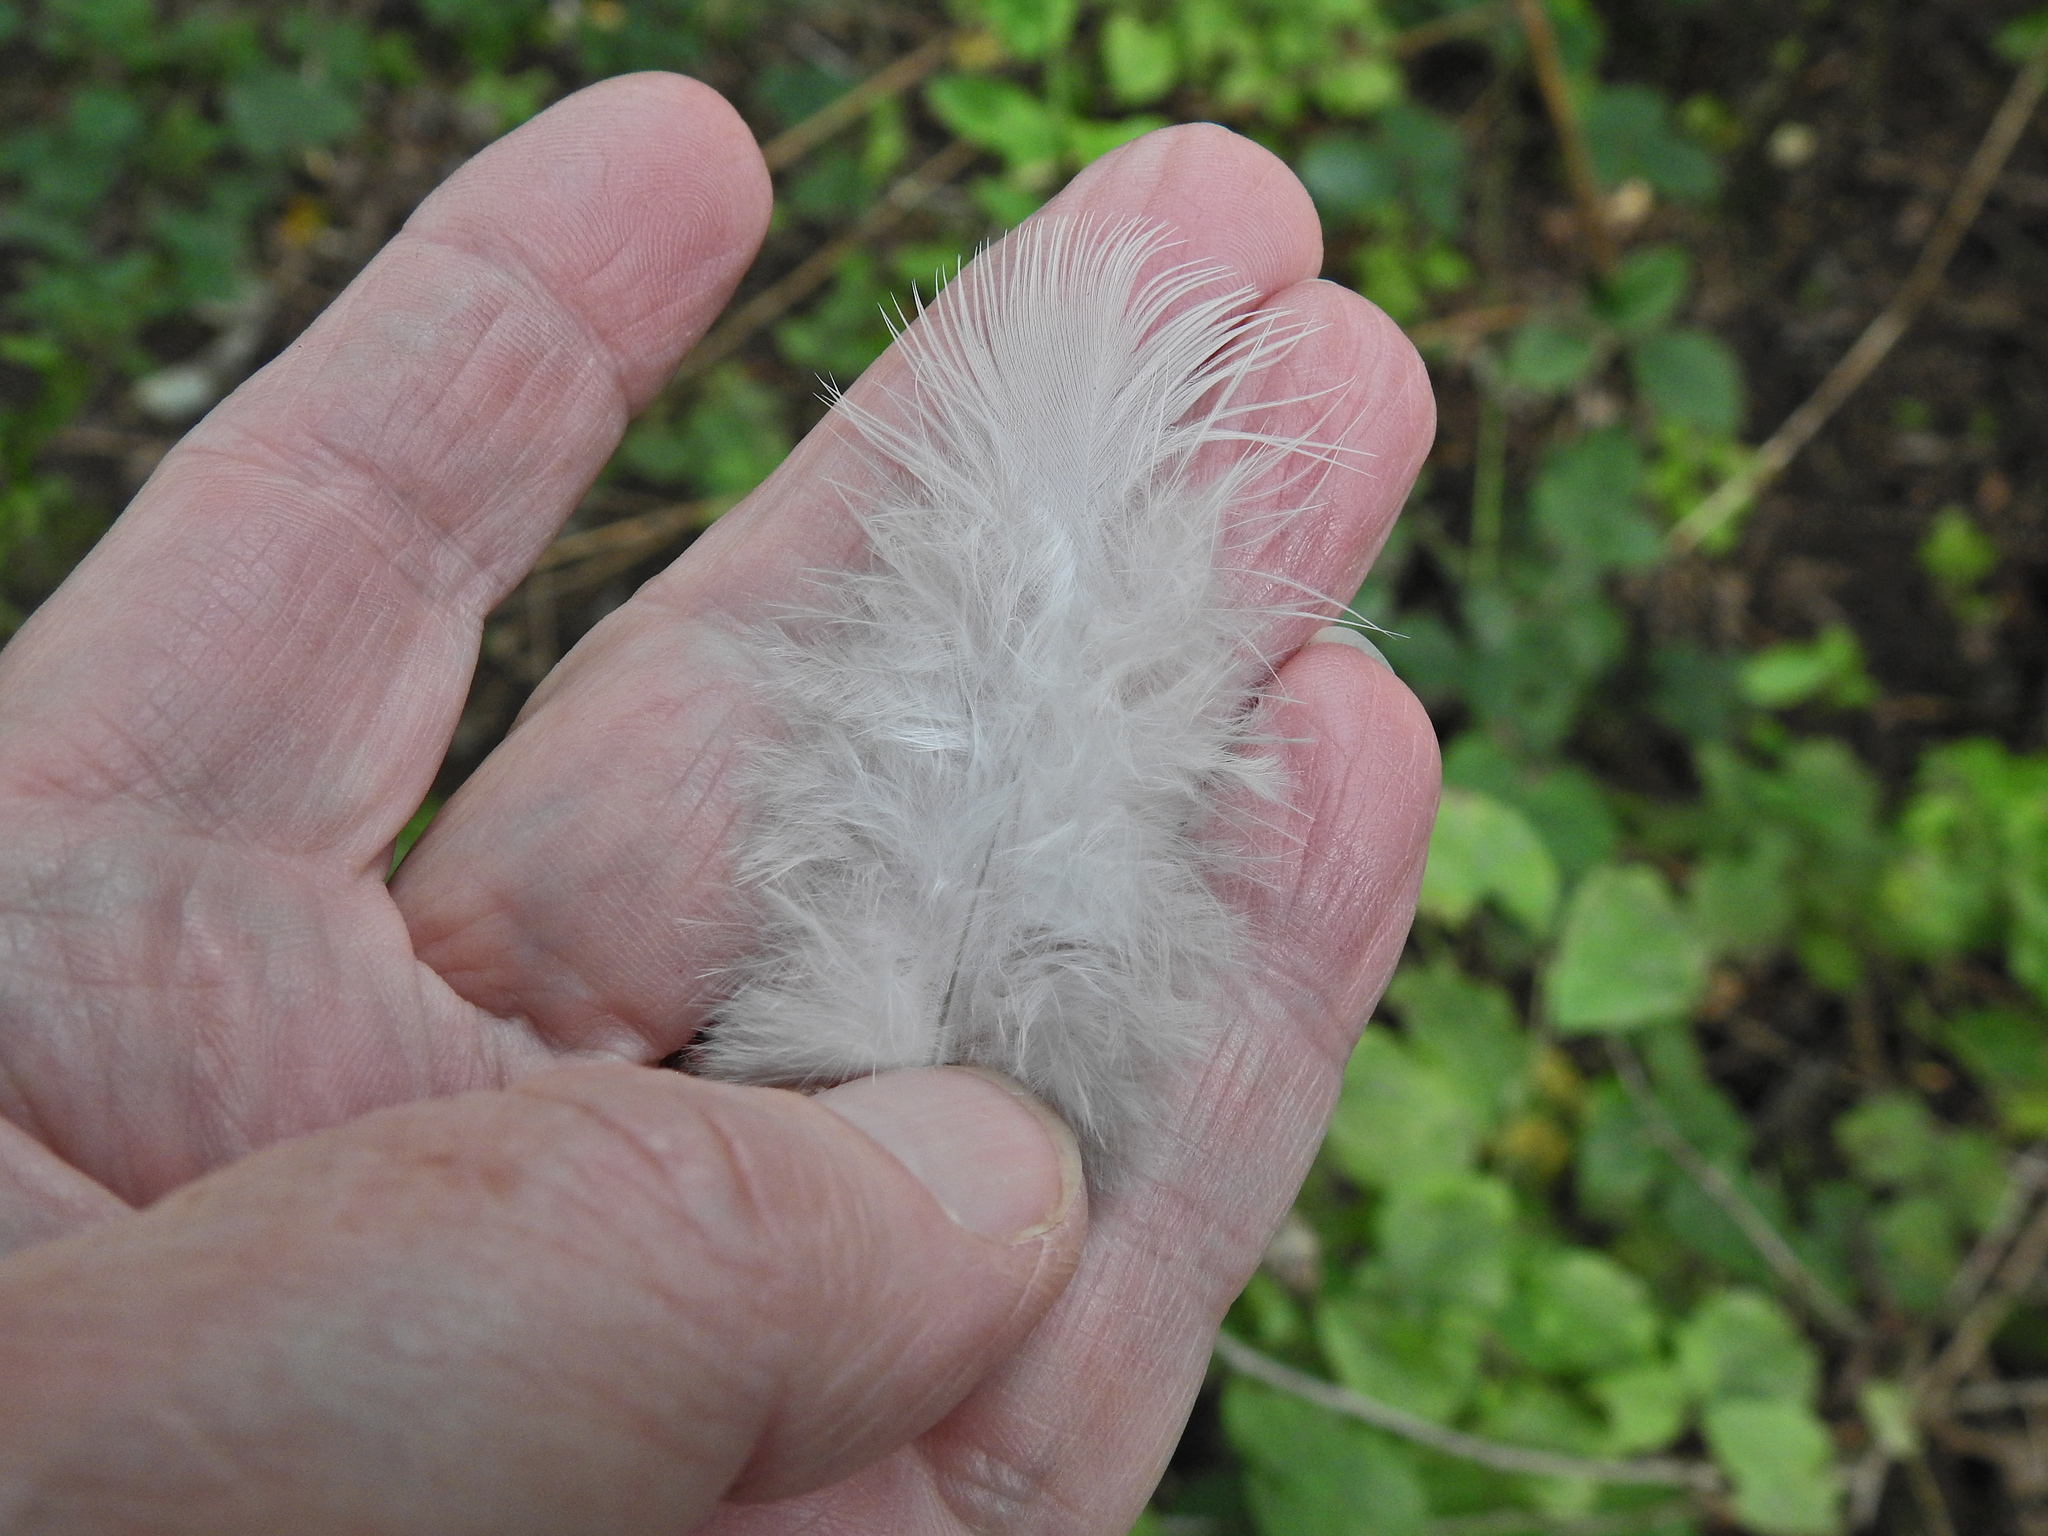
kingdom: Animalia
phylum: Chordata
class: Aves
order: Columbiformes
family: Columbidae
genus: Columba
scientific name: Columba palumbus
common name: Common wood pigeon
